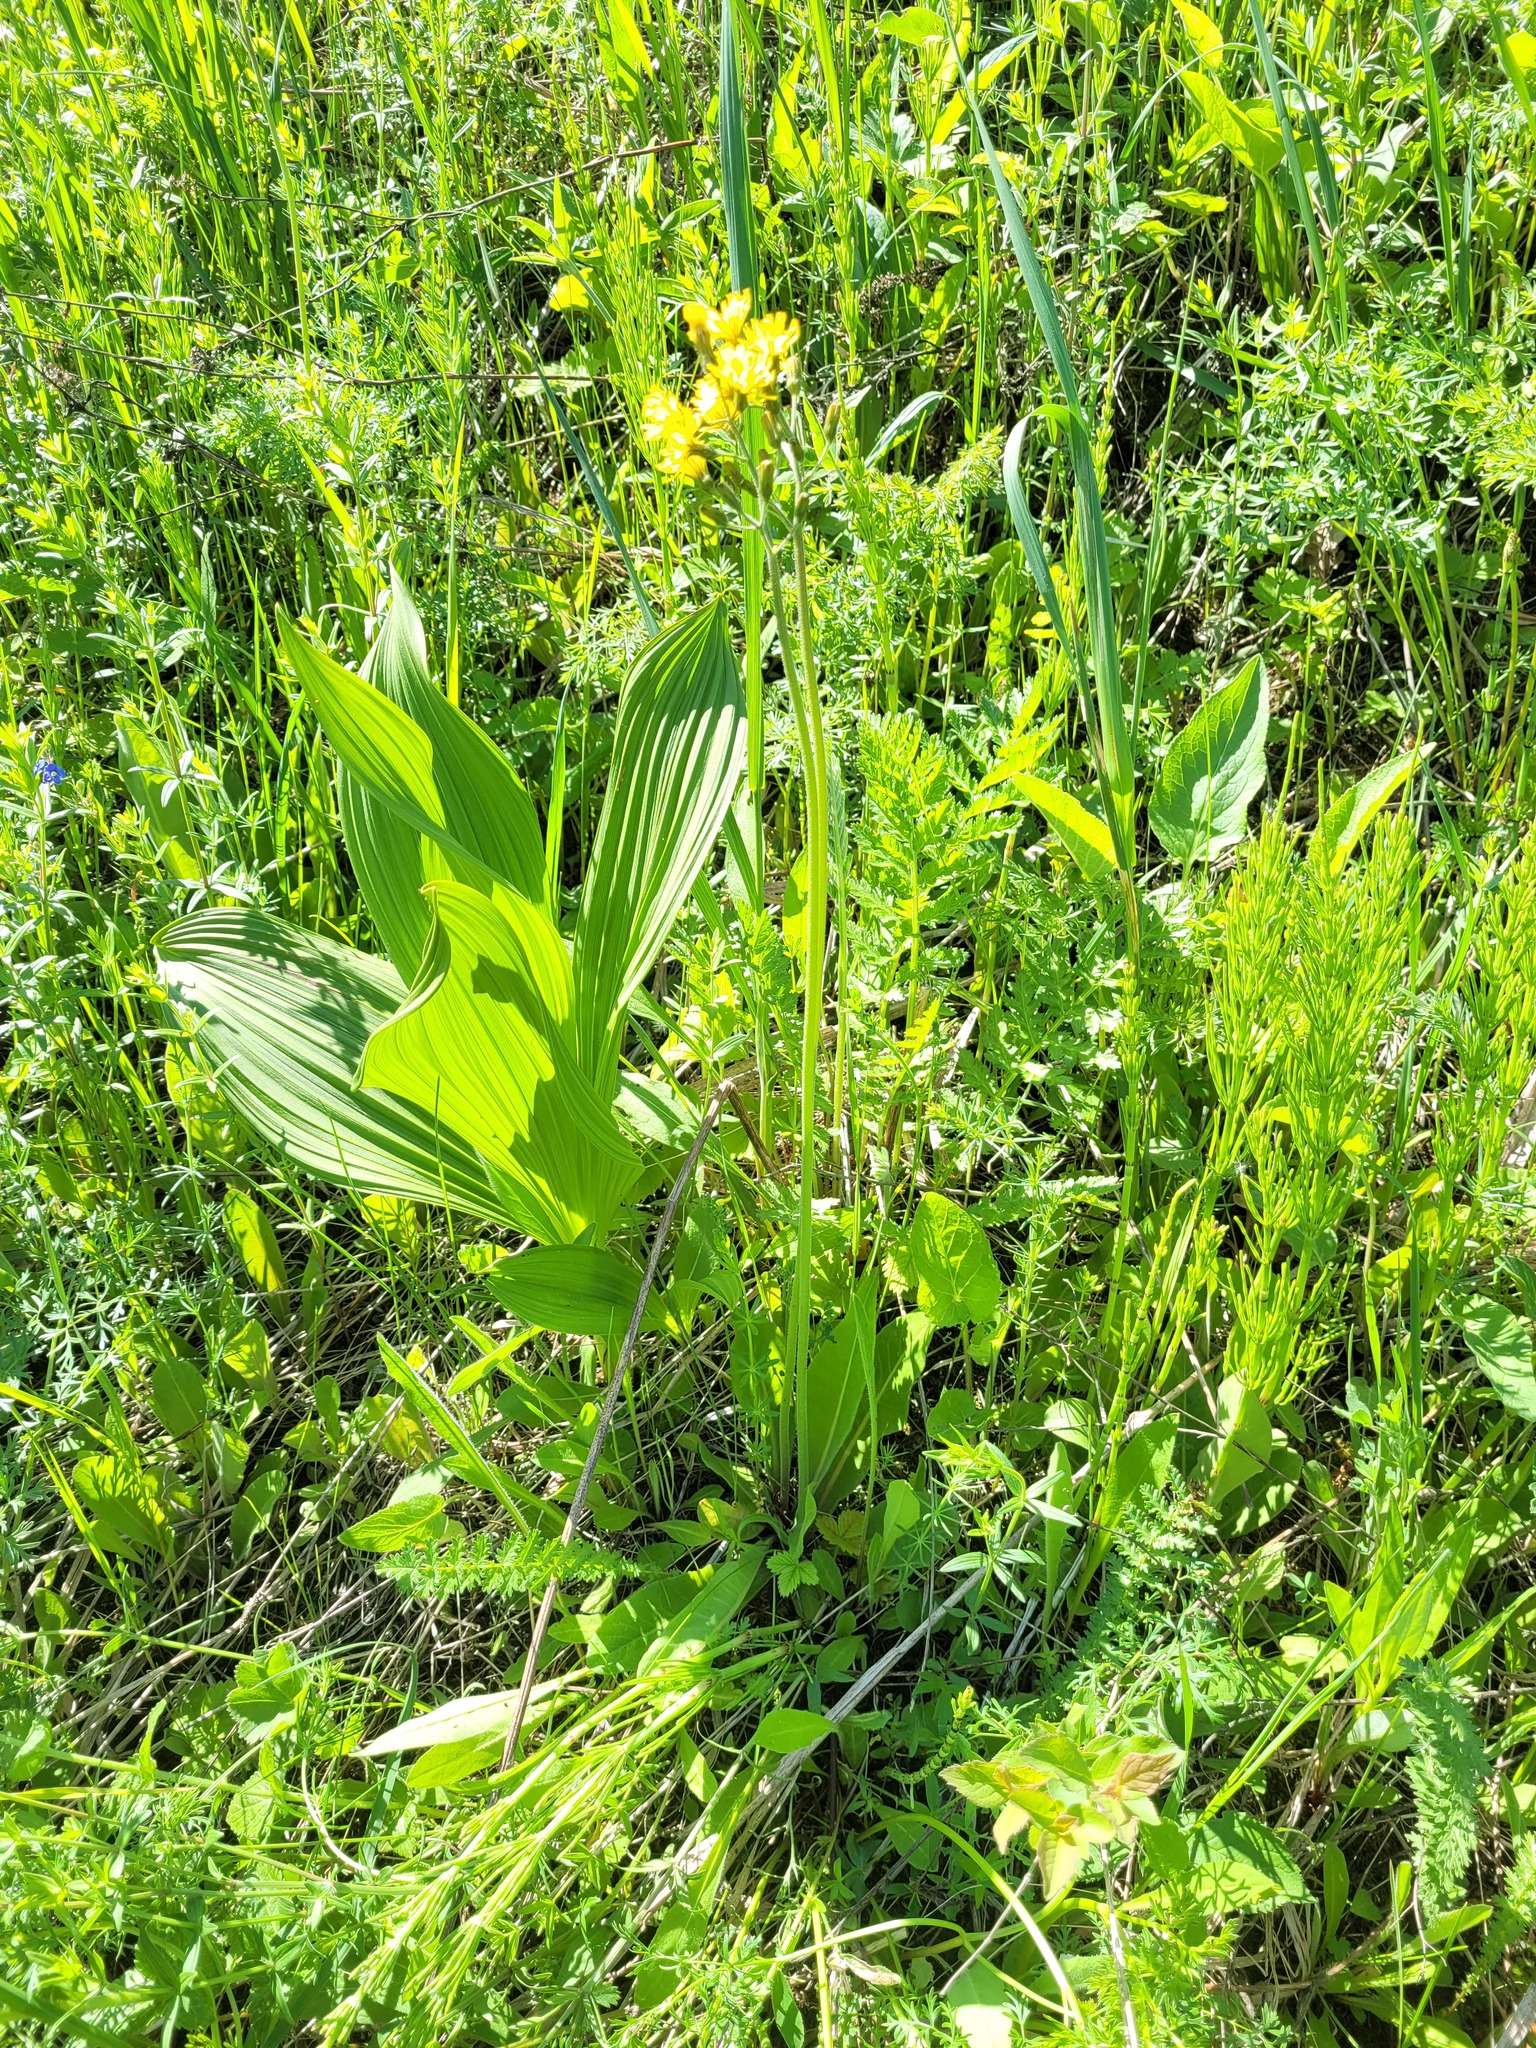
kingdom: Plantae
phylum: Tracheophyta
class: Magnoliopsida
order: Asterales
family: Asteraceae
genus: Crepis
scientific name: Crepis praemorsa
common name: Leafless hawk's-beard
